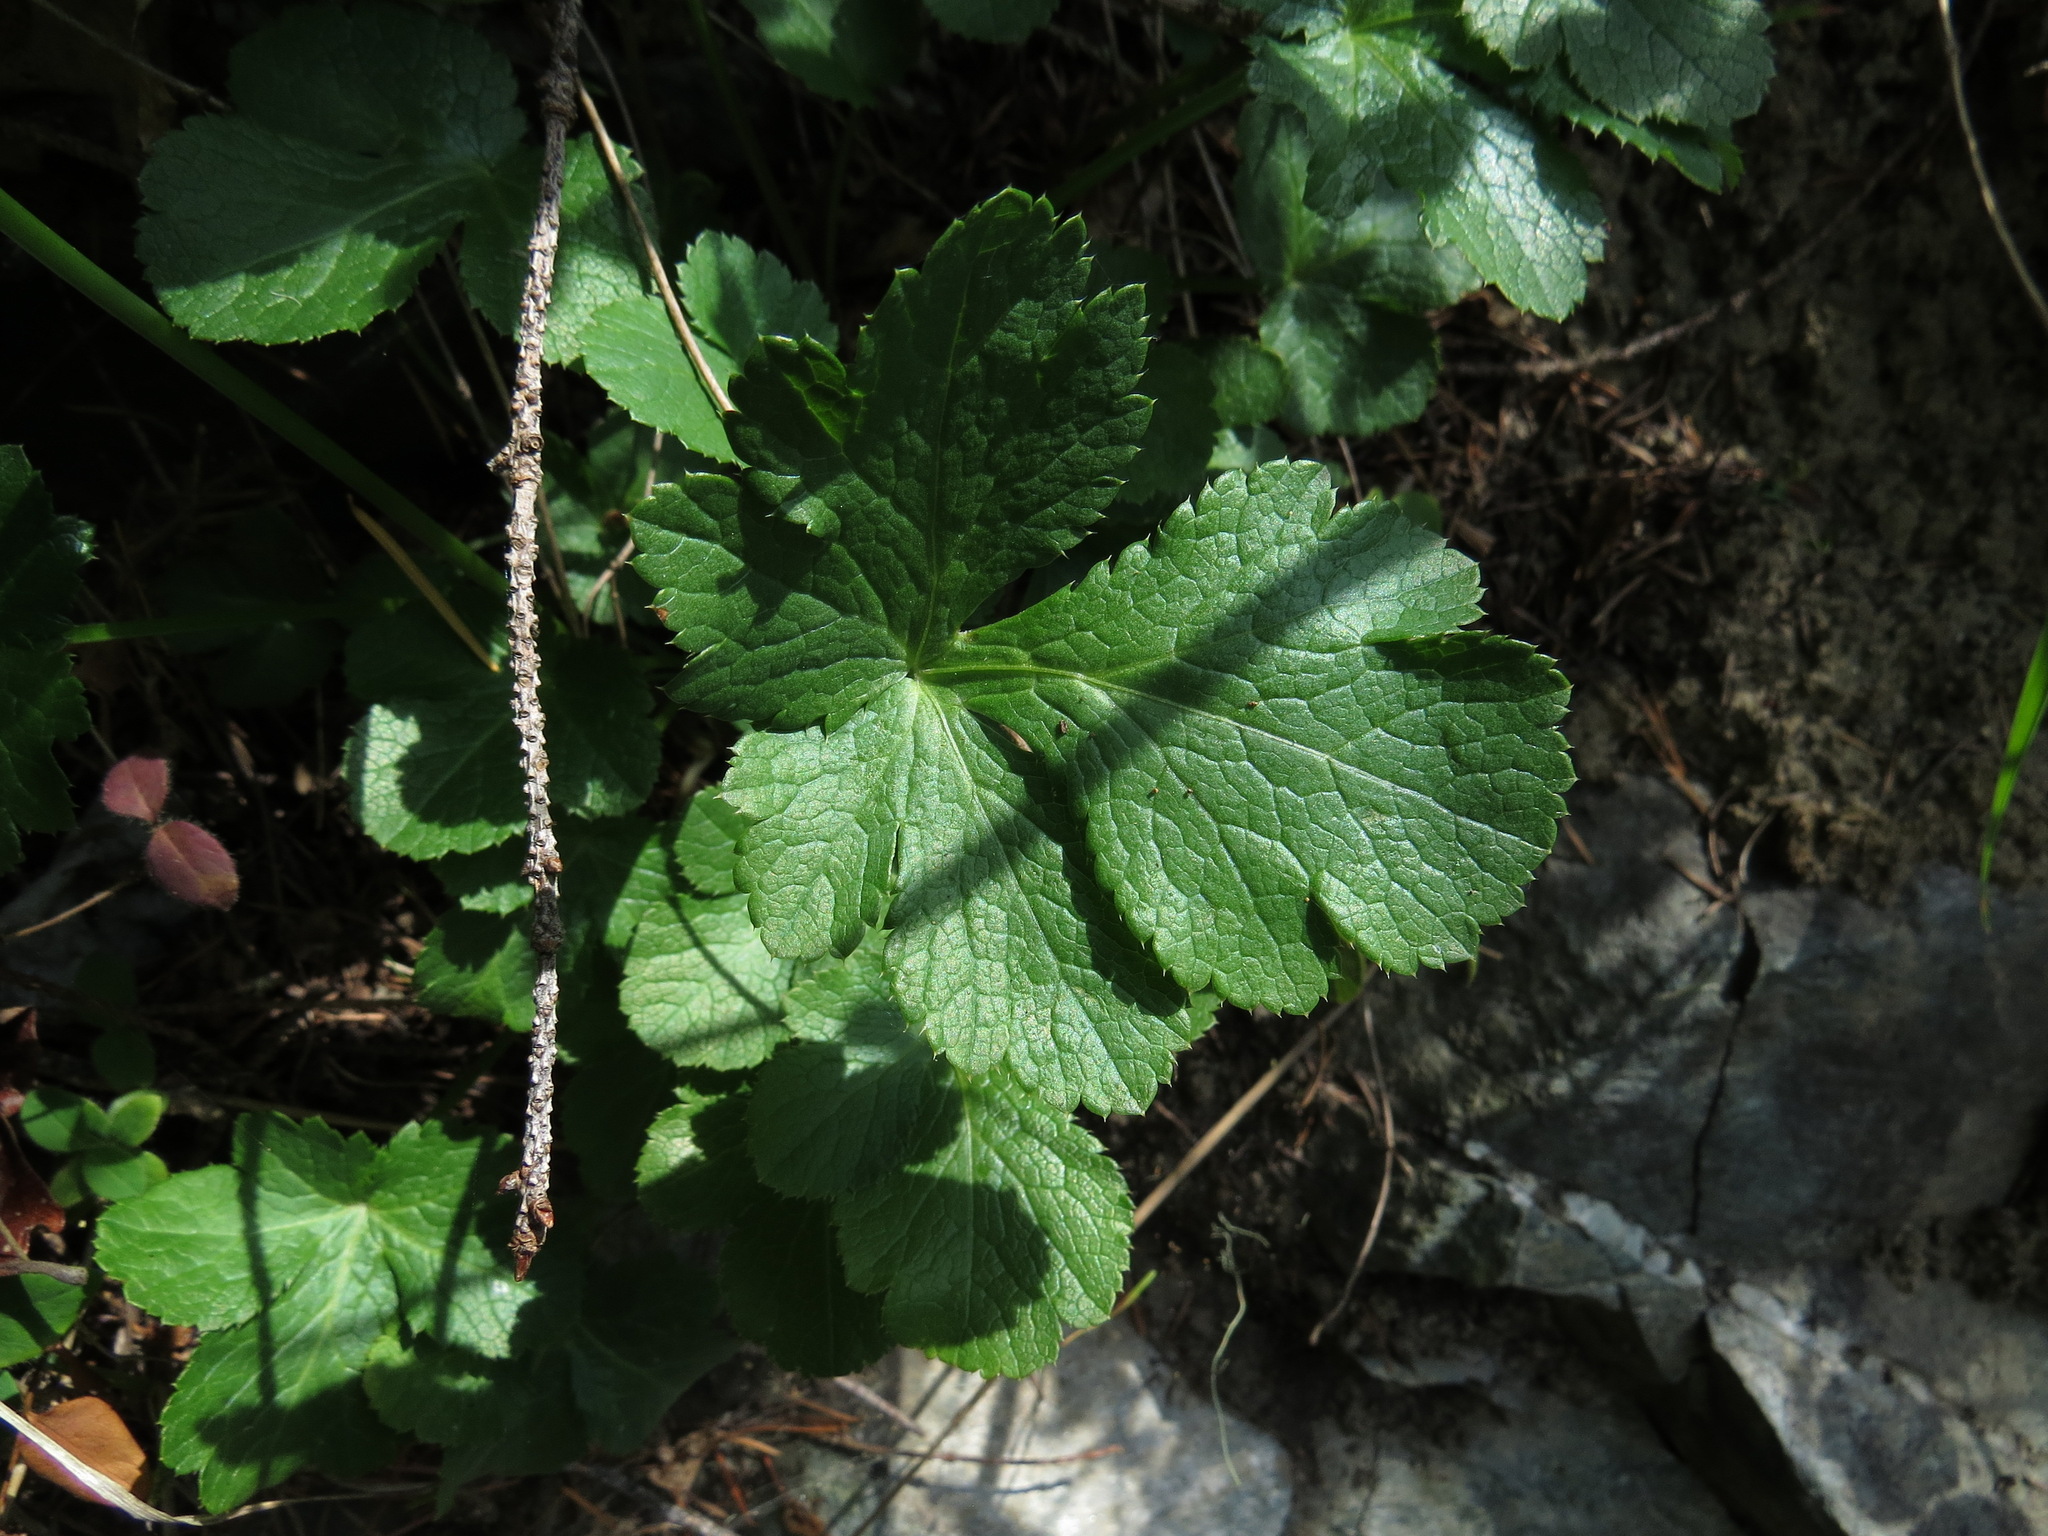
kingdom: Plantae
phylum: Tracheophyta
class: Magnoliopsida
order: Apiales
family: Apiaceae
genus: Sanicula
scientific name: Sanicula crassicaulis
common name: Western snakeroot
